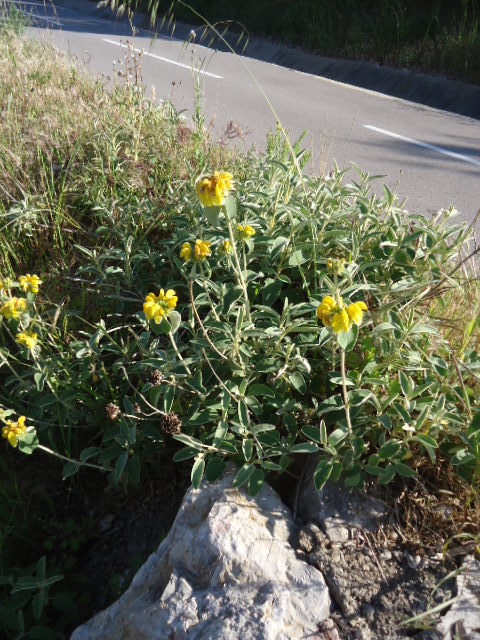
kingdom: Plantae
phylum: Tracheophyta
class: Magnoliopsida
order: Lamiales
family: Lamiaceae
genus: Phlomis
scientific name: Phlomis fruticosa
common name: Jerusalem sage
